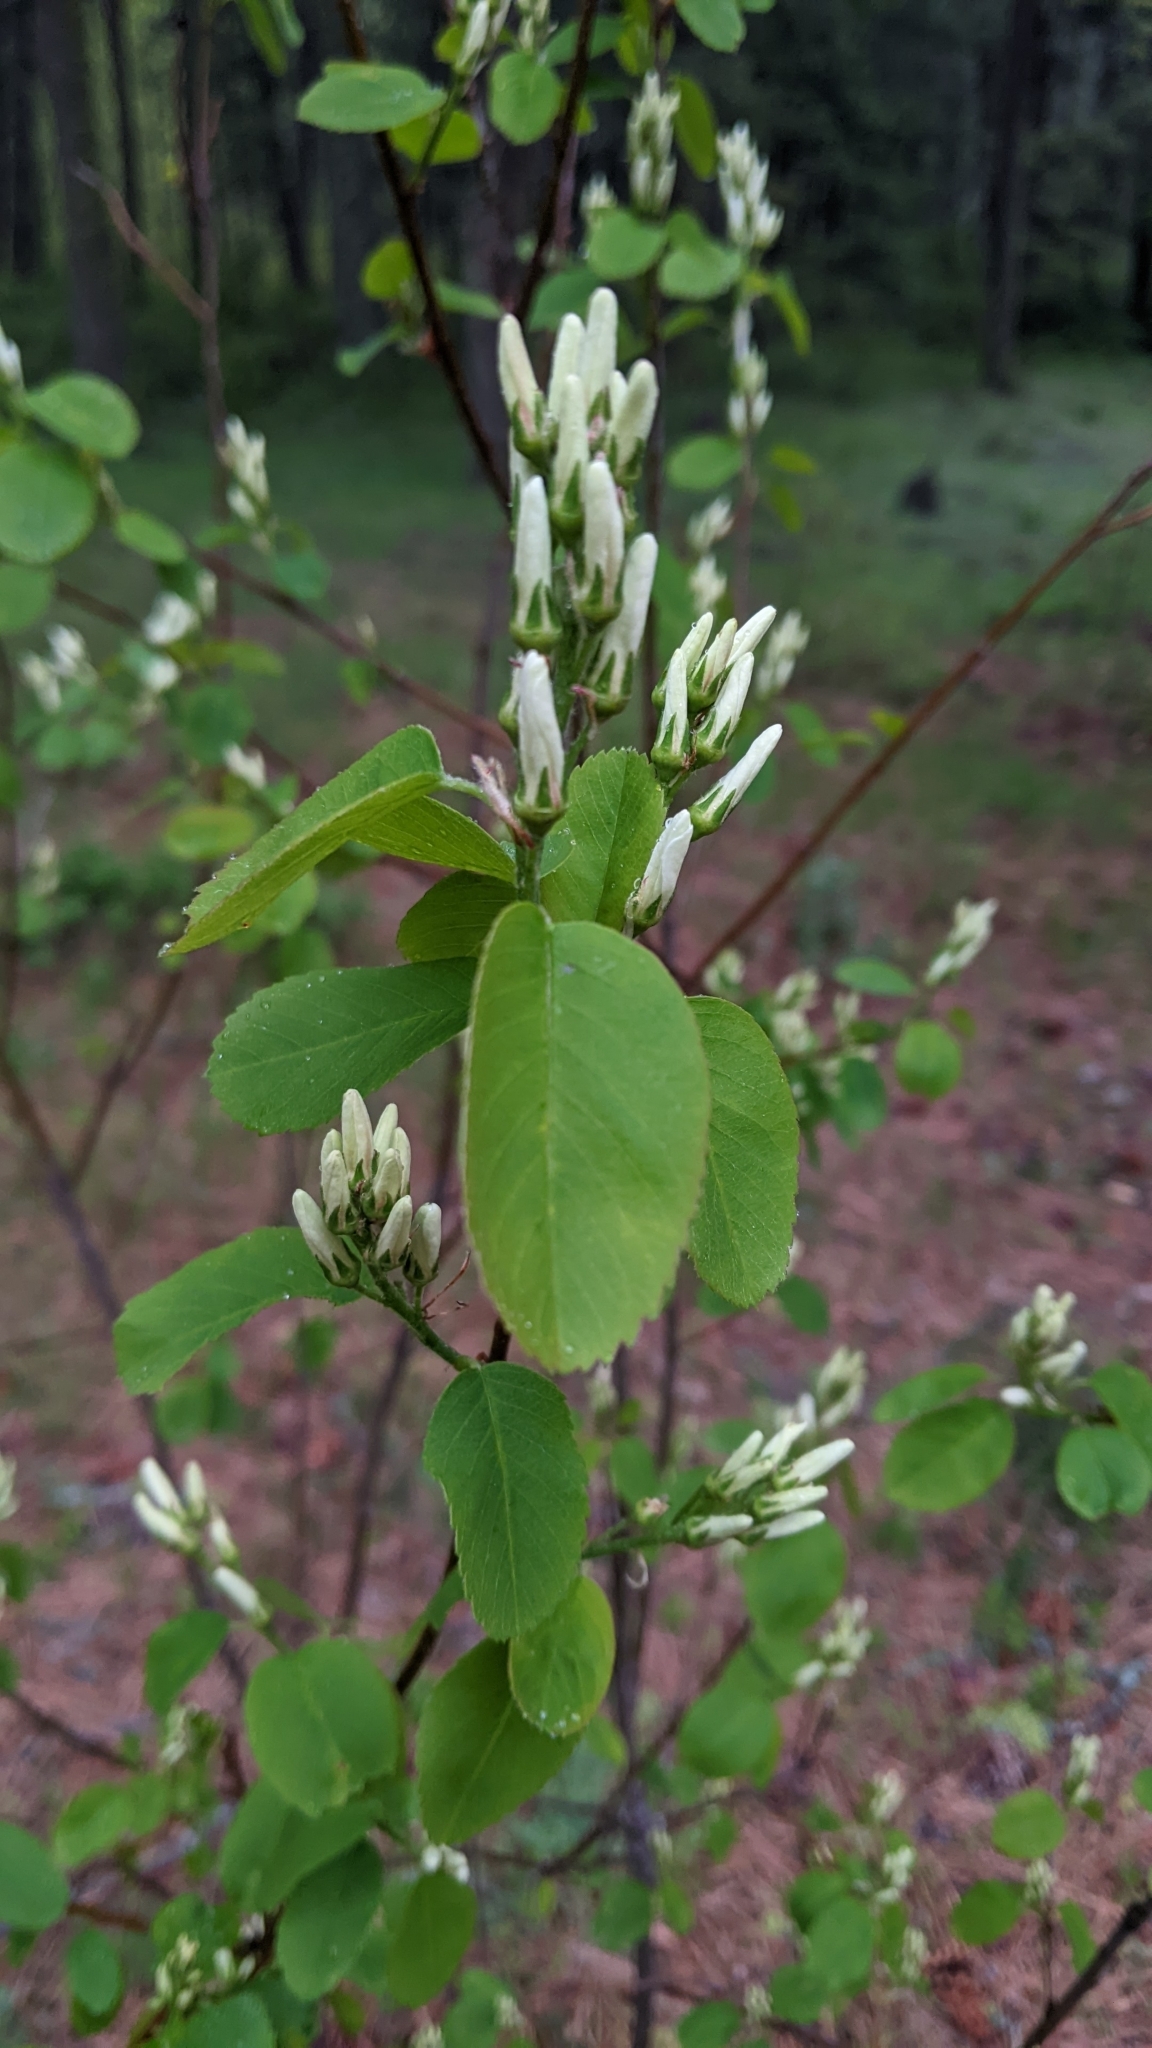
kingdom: Plantae
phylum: Tracheophyta
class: Magnoliopsida
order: Rosales
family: Rosaceae
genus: Amelanchier
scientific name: Amelanchier alnifolia
